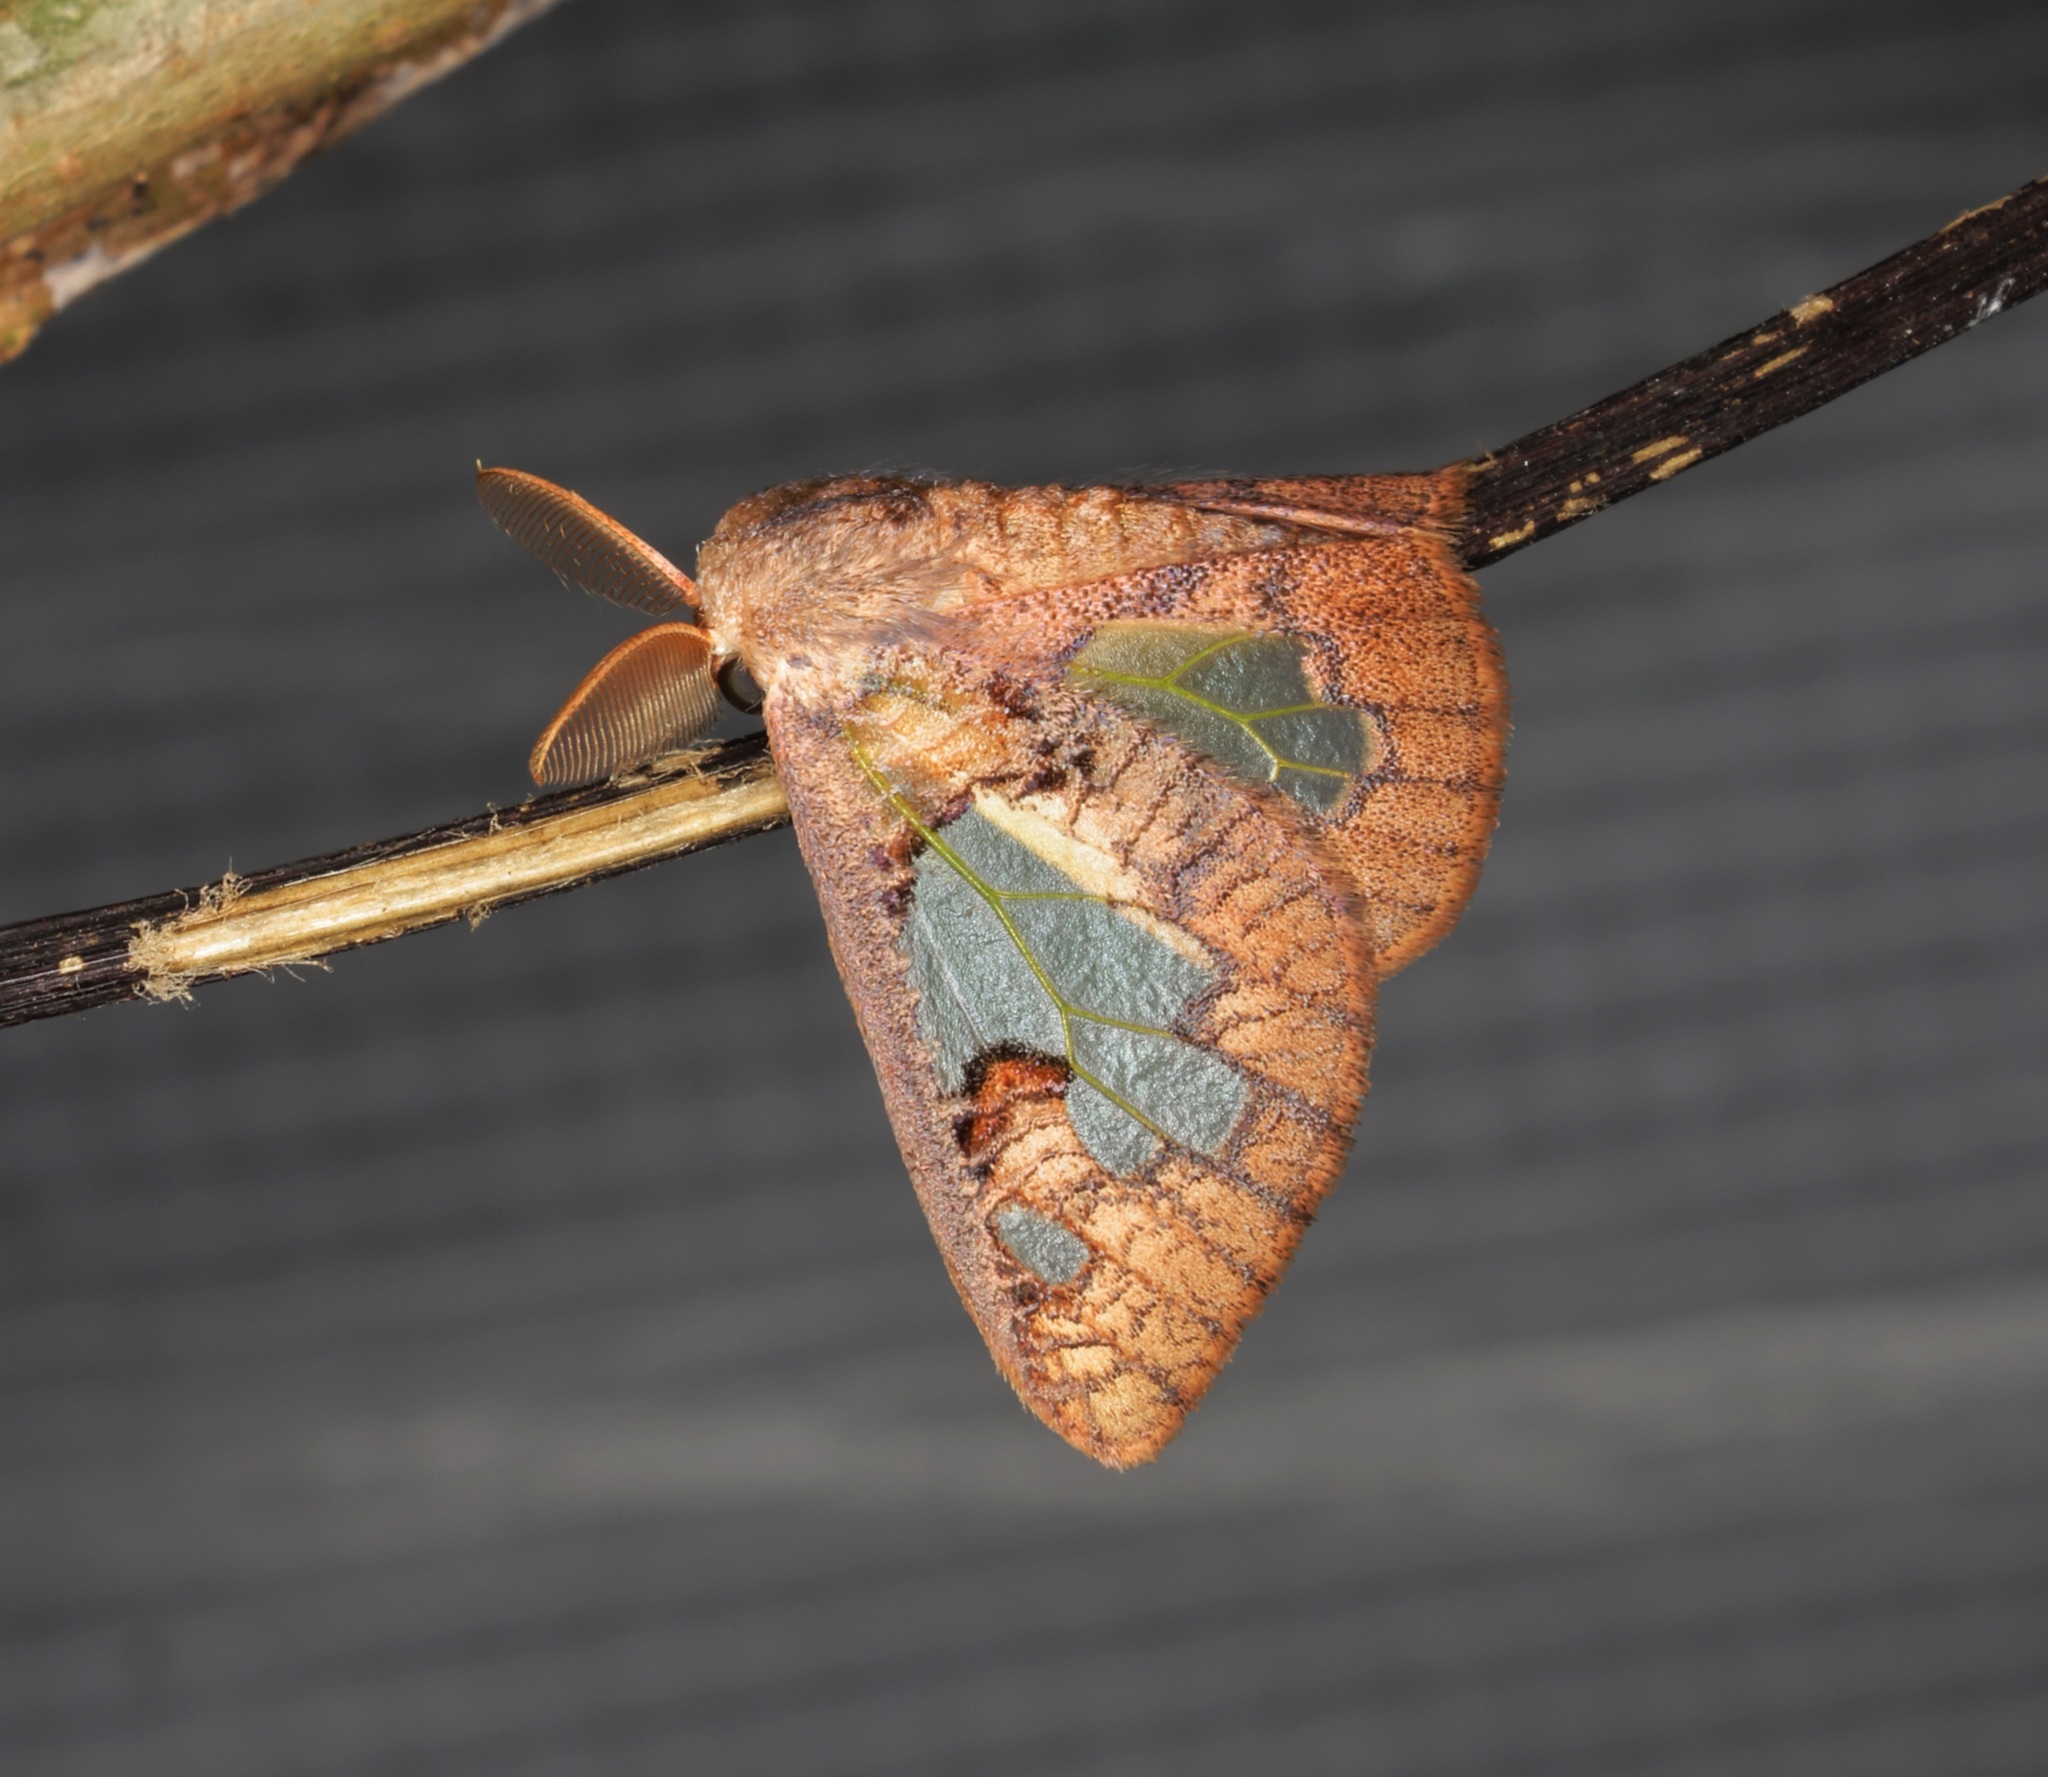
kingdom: Animalia
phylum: Arthropoda
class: Insecta
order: Lepidoptera
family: Erebidae
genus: Carriola
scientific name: Carriola seminsula
